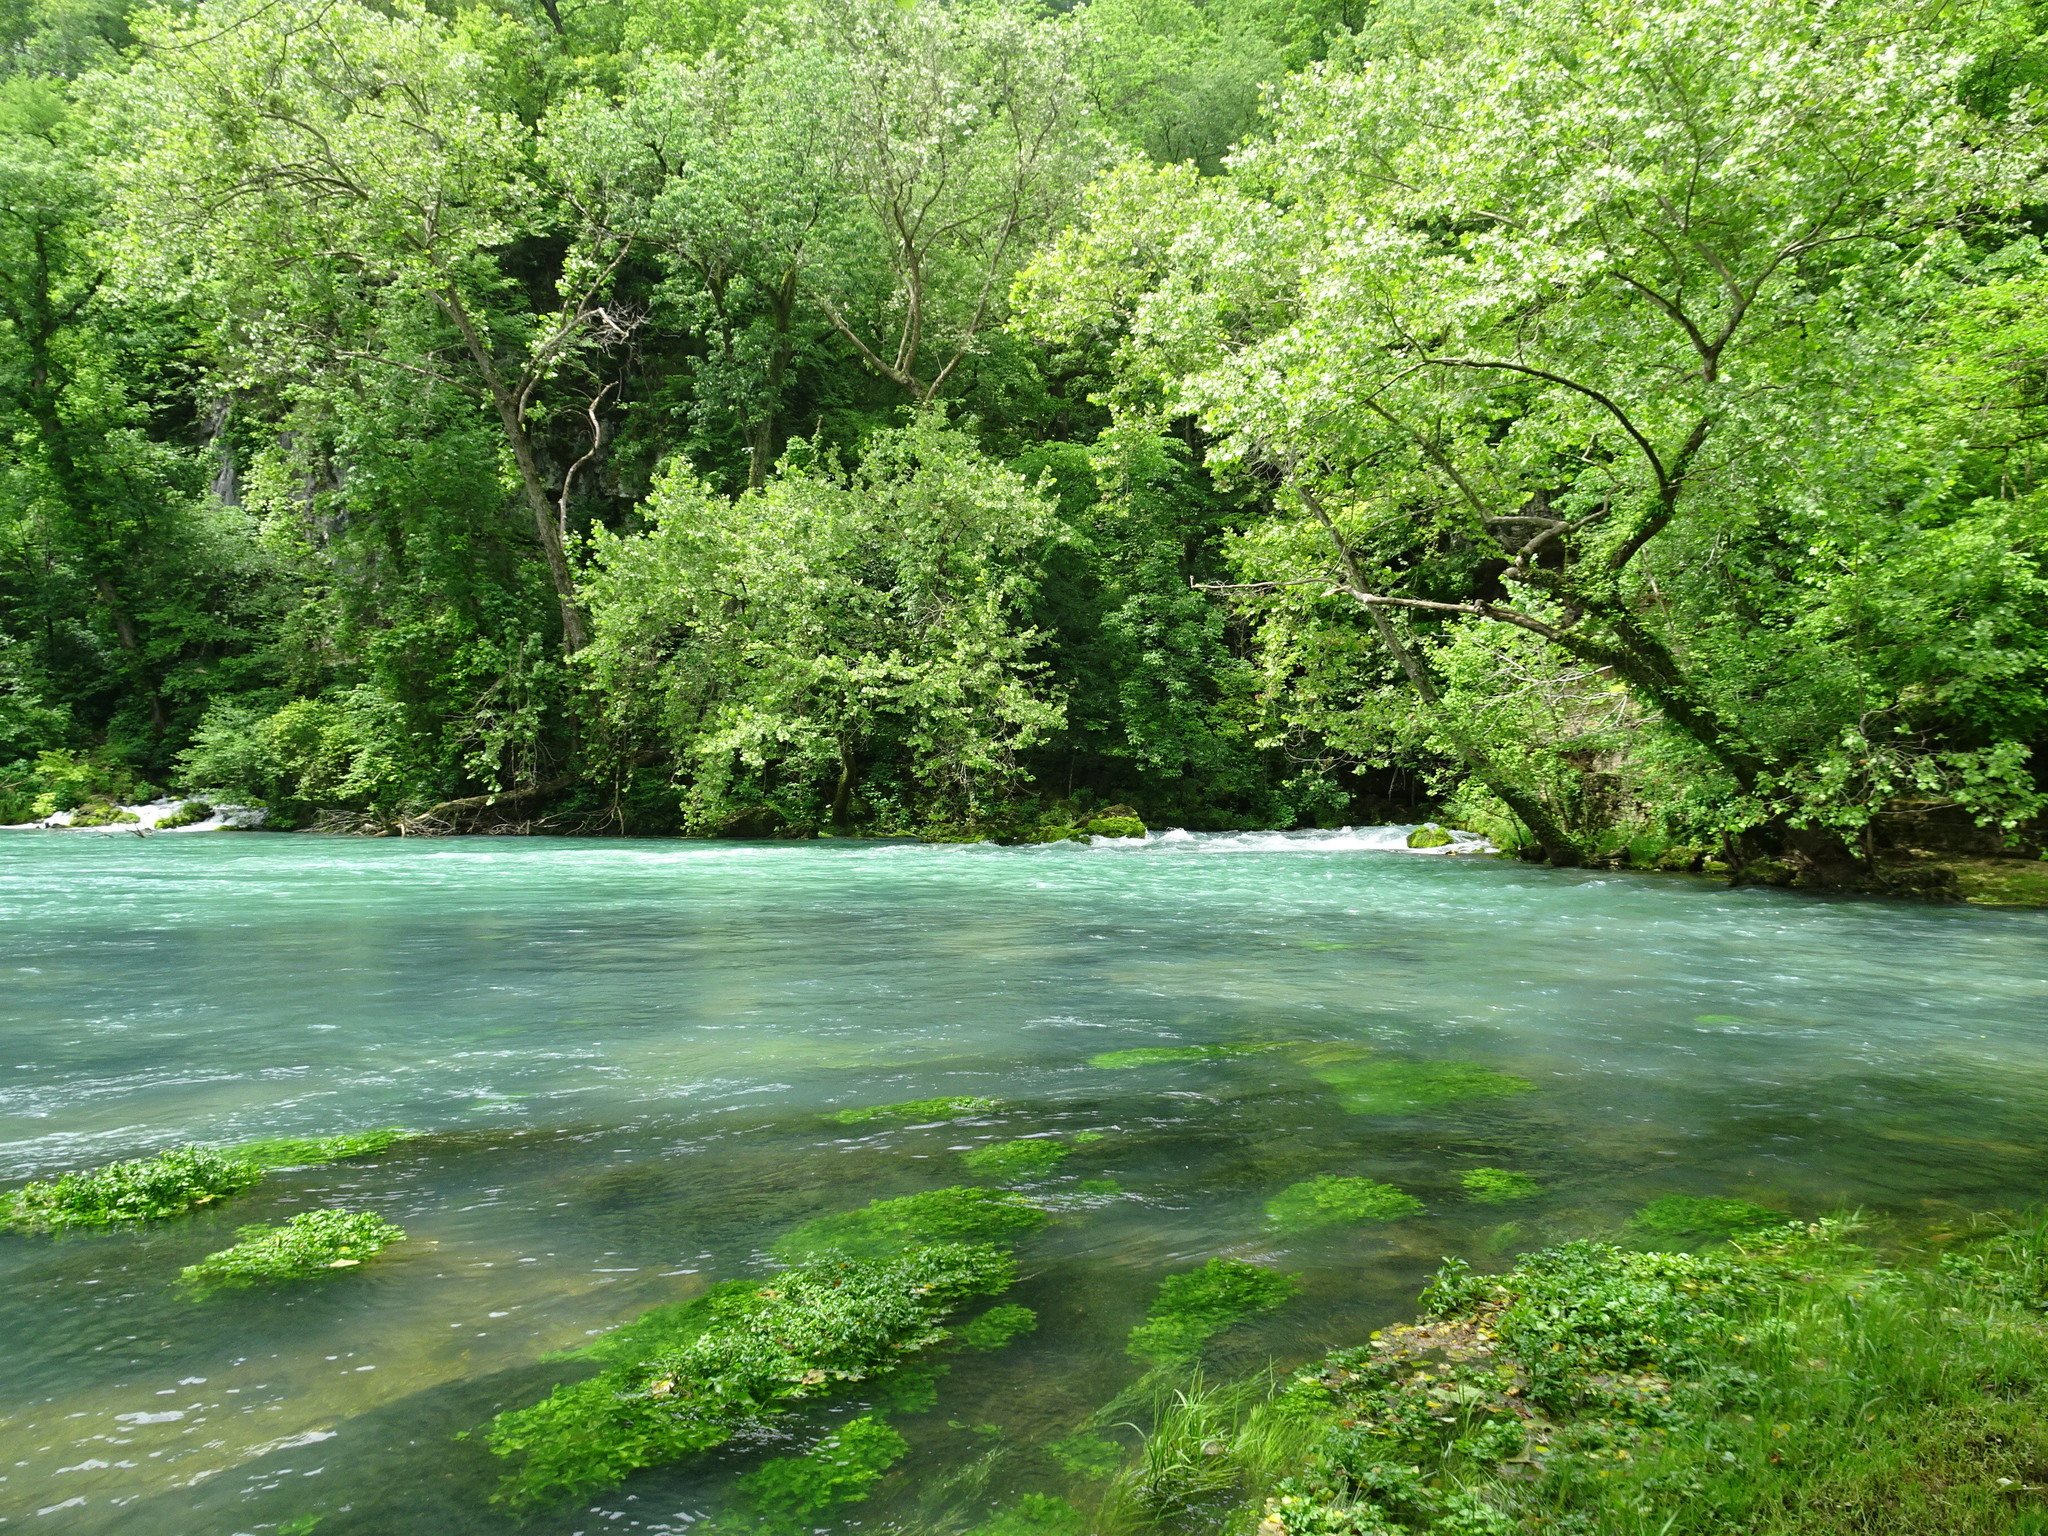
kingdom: Plantae
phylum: Tracheophyta
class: Magnoliopsida
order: Brassicales
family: Brassicaceae
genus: Nasturtium
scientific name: Nasturtium officinale
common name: Watercress
